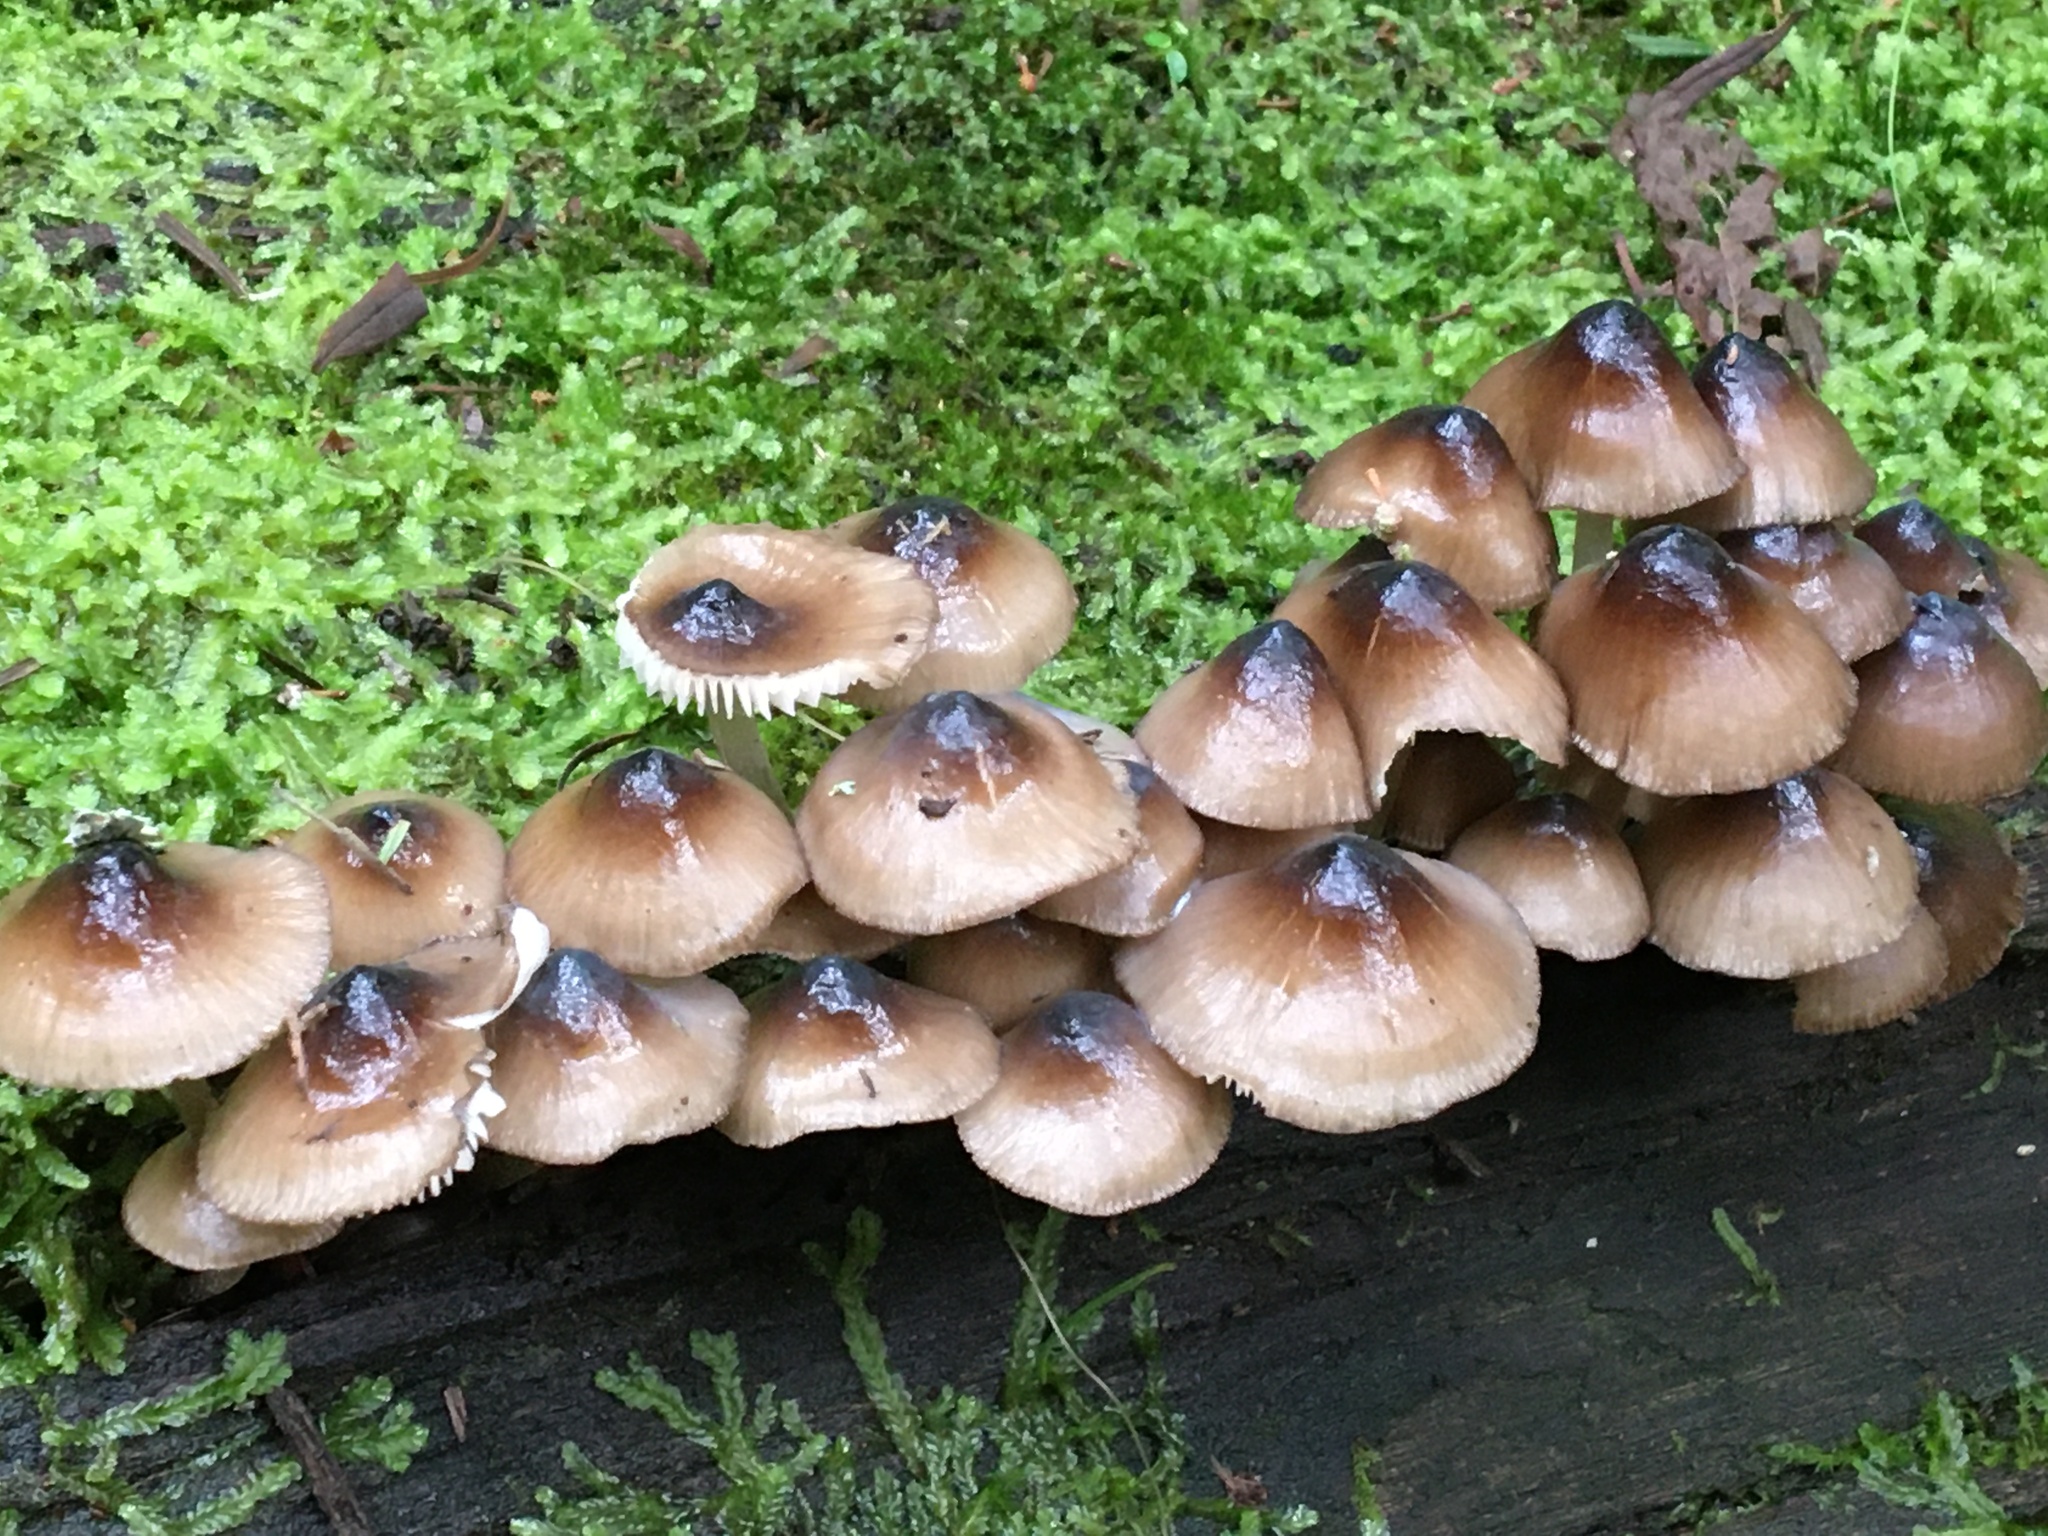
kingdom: Fungi
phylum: Basidiomycota
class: Agaricomycetes
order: Agaricales
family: Mycenaceae
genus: Mycena
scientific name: Mycena mulawaestris
